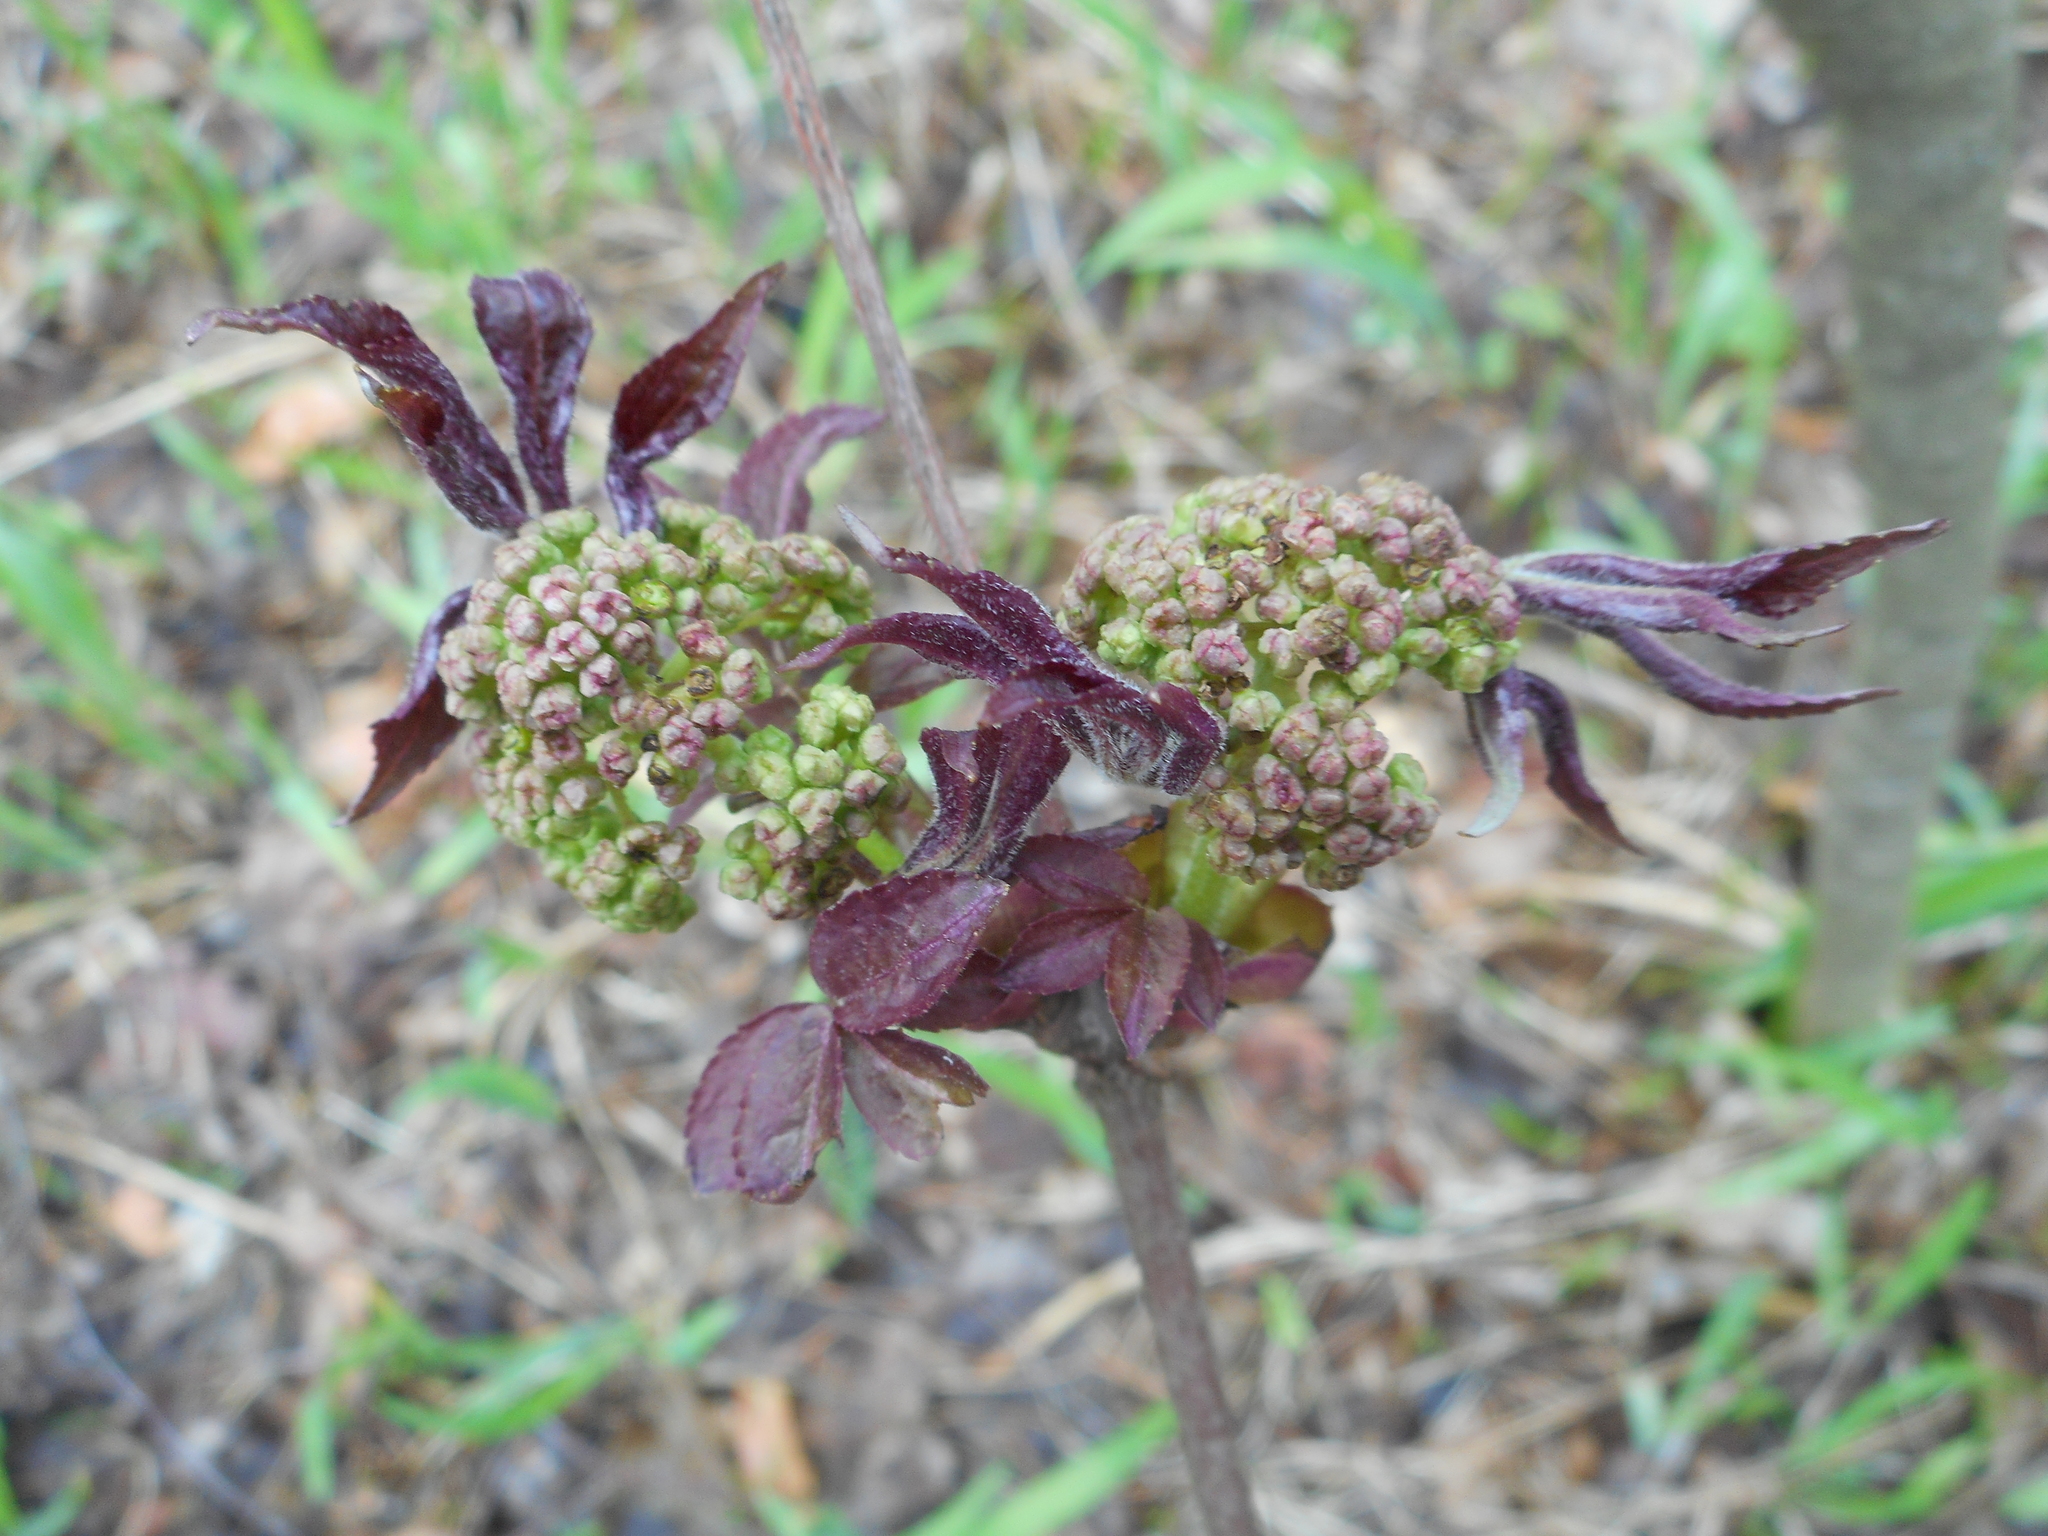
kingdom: Plantae
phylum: Tracheophyta
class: Magnoliopsida
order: Dipsacales
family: Viburnaceae
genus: Sambucus
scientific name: Sambucus racemosa
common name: Red-berried elder
